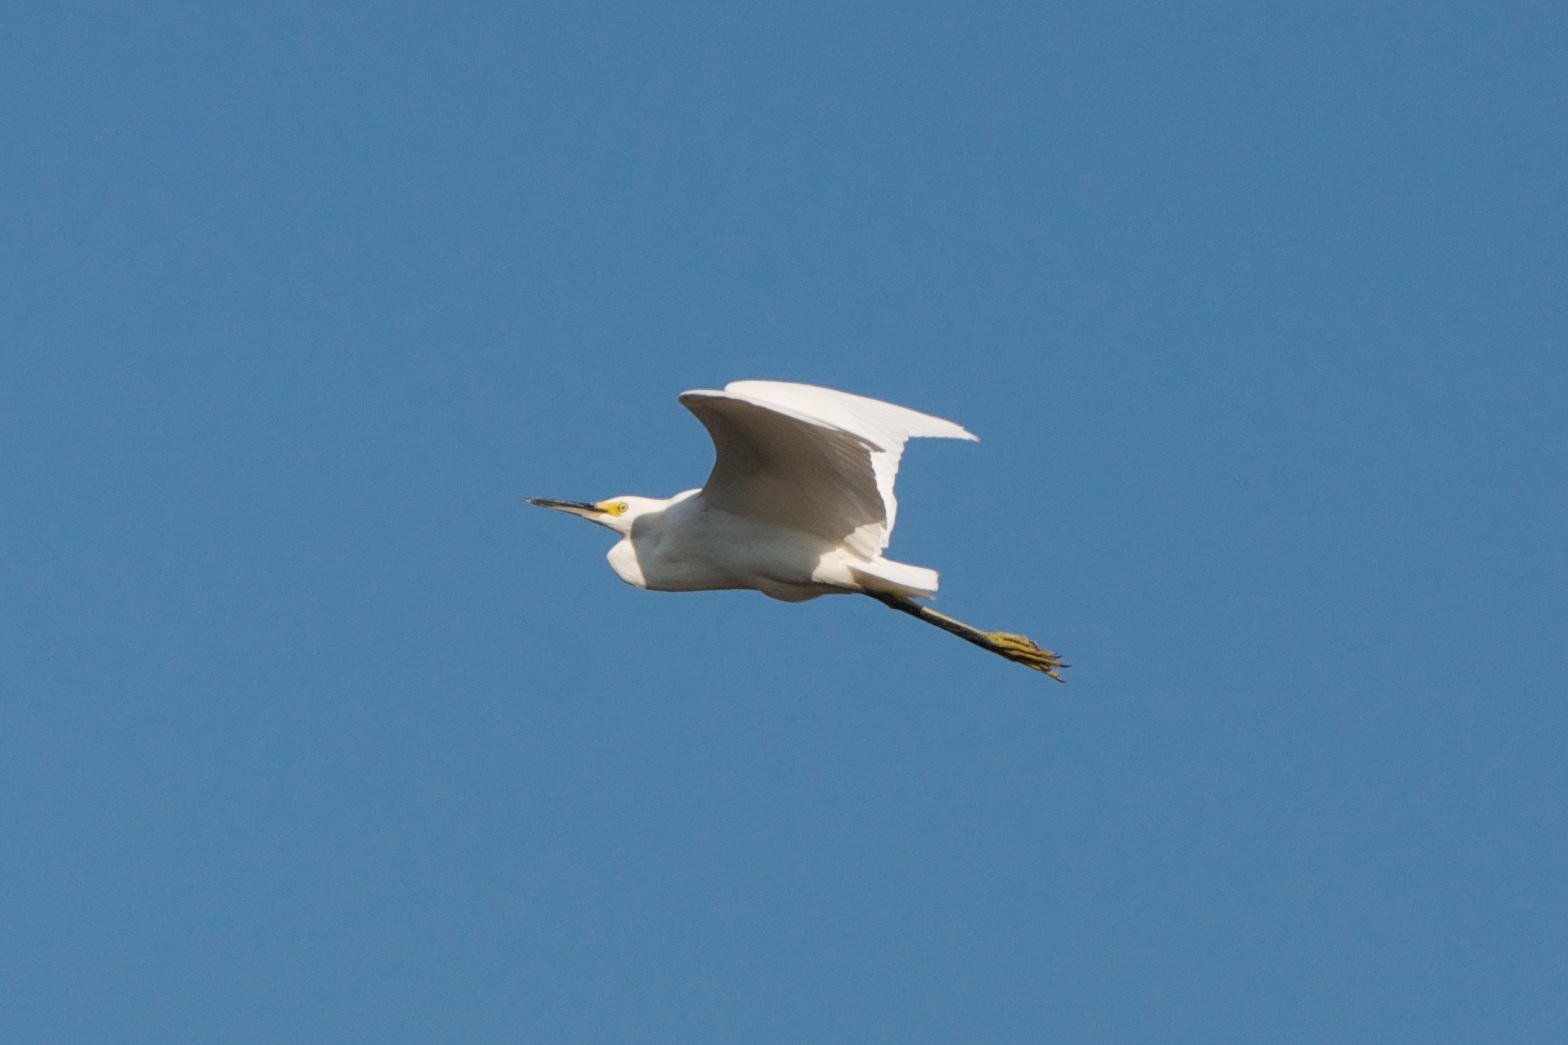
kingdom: Animalia
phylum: Chordata
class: Aves
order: Pelecaniformes
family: Ardeidae
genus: Egretta
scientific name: Egretta thula
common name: Snowy egret
